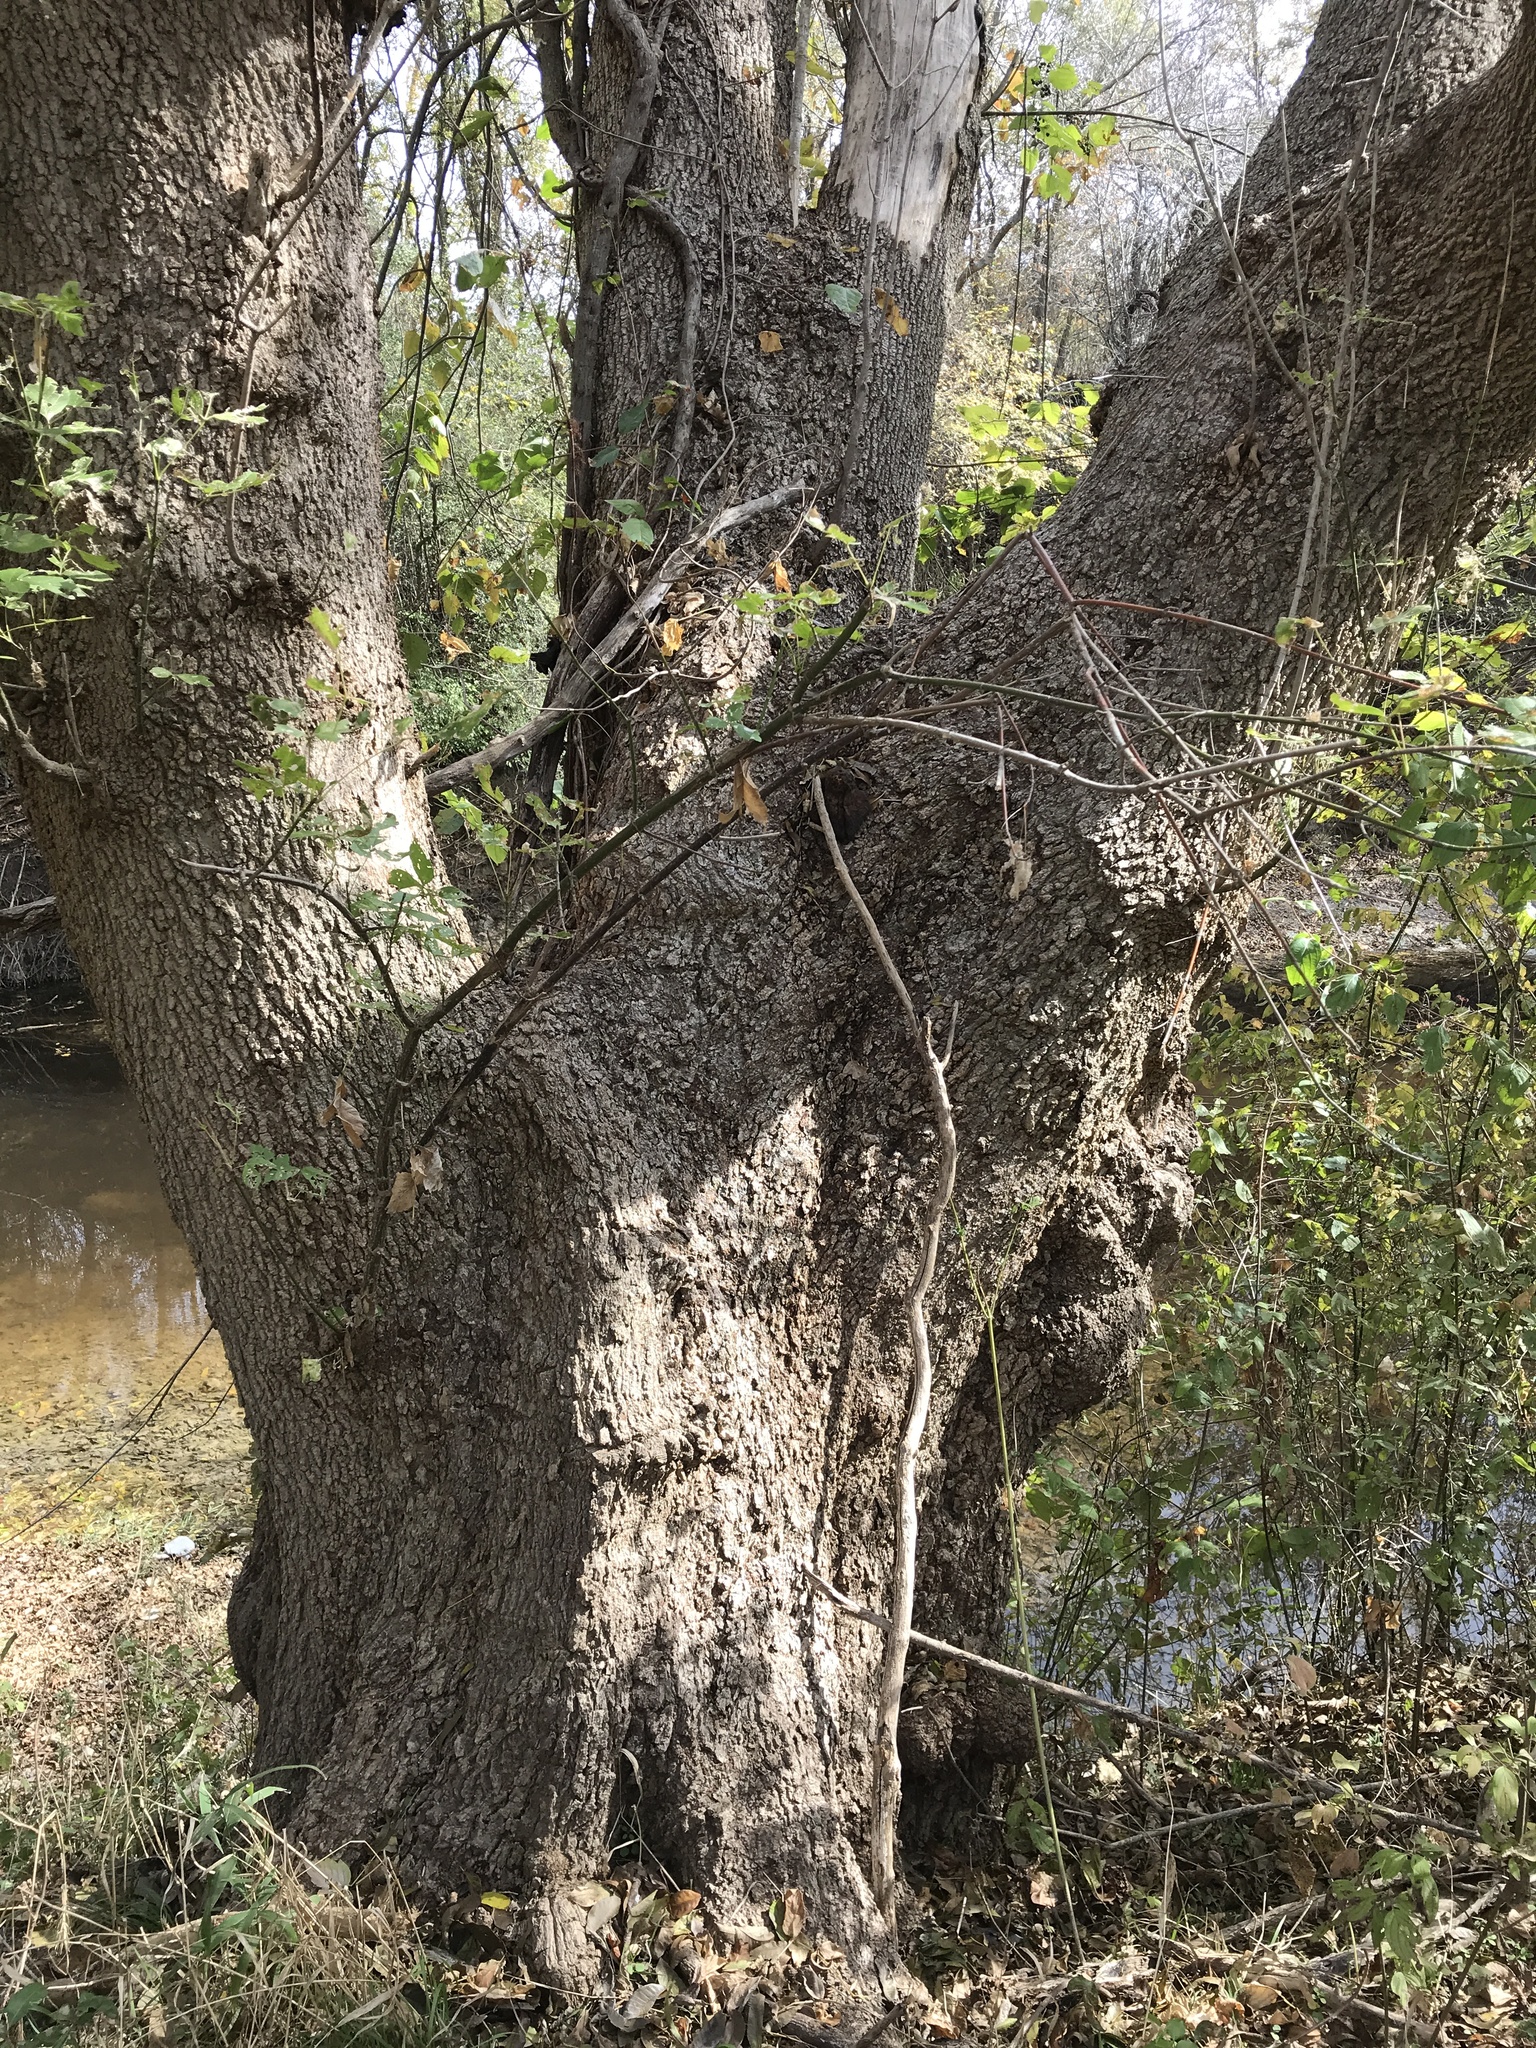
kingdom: Plantae
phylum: Tracheophyta
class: Magnoliopsida
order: Sapindales
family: Sapindaceae
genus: Acer
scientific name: Acer negundo
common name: Ashleaf maple
